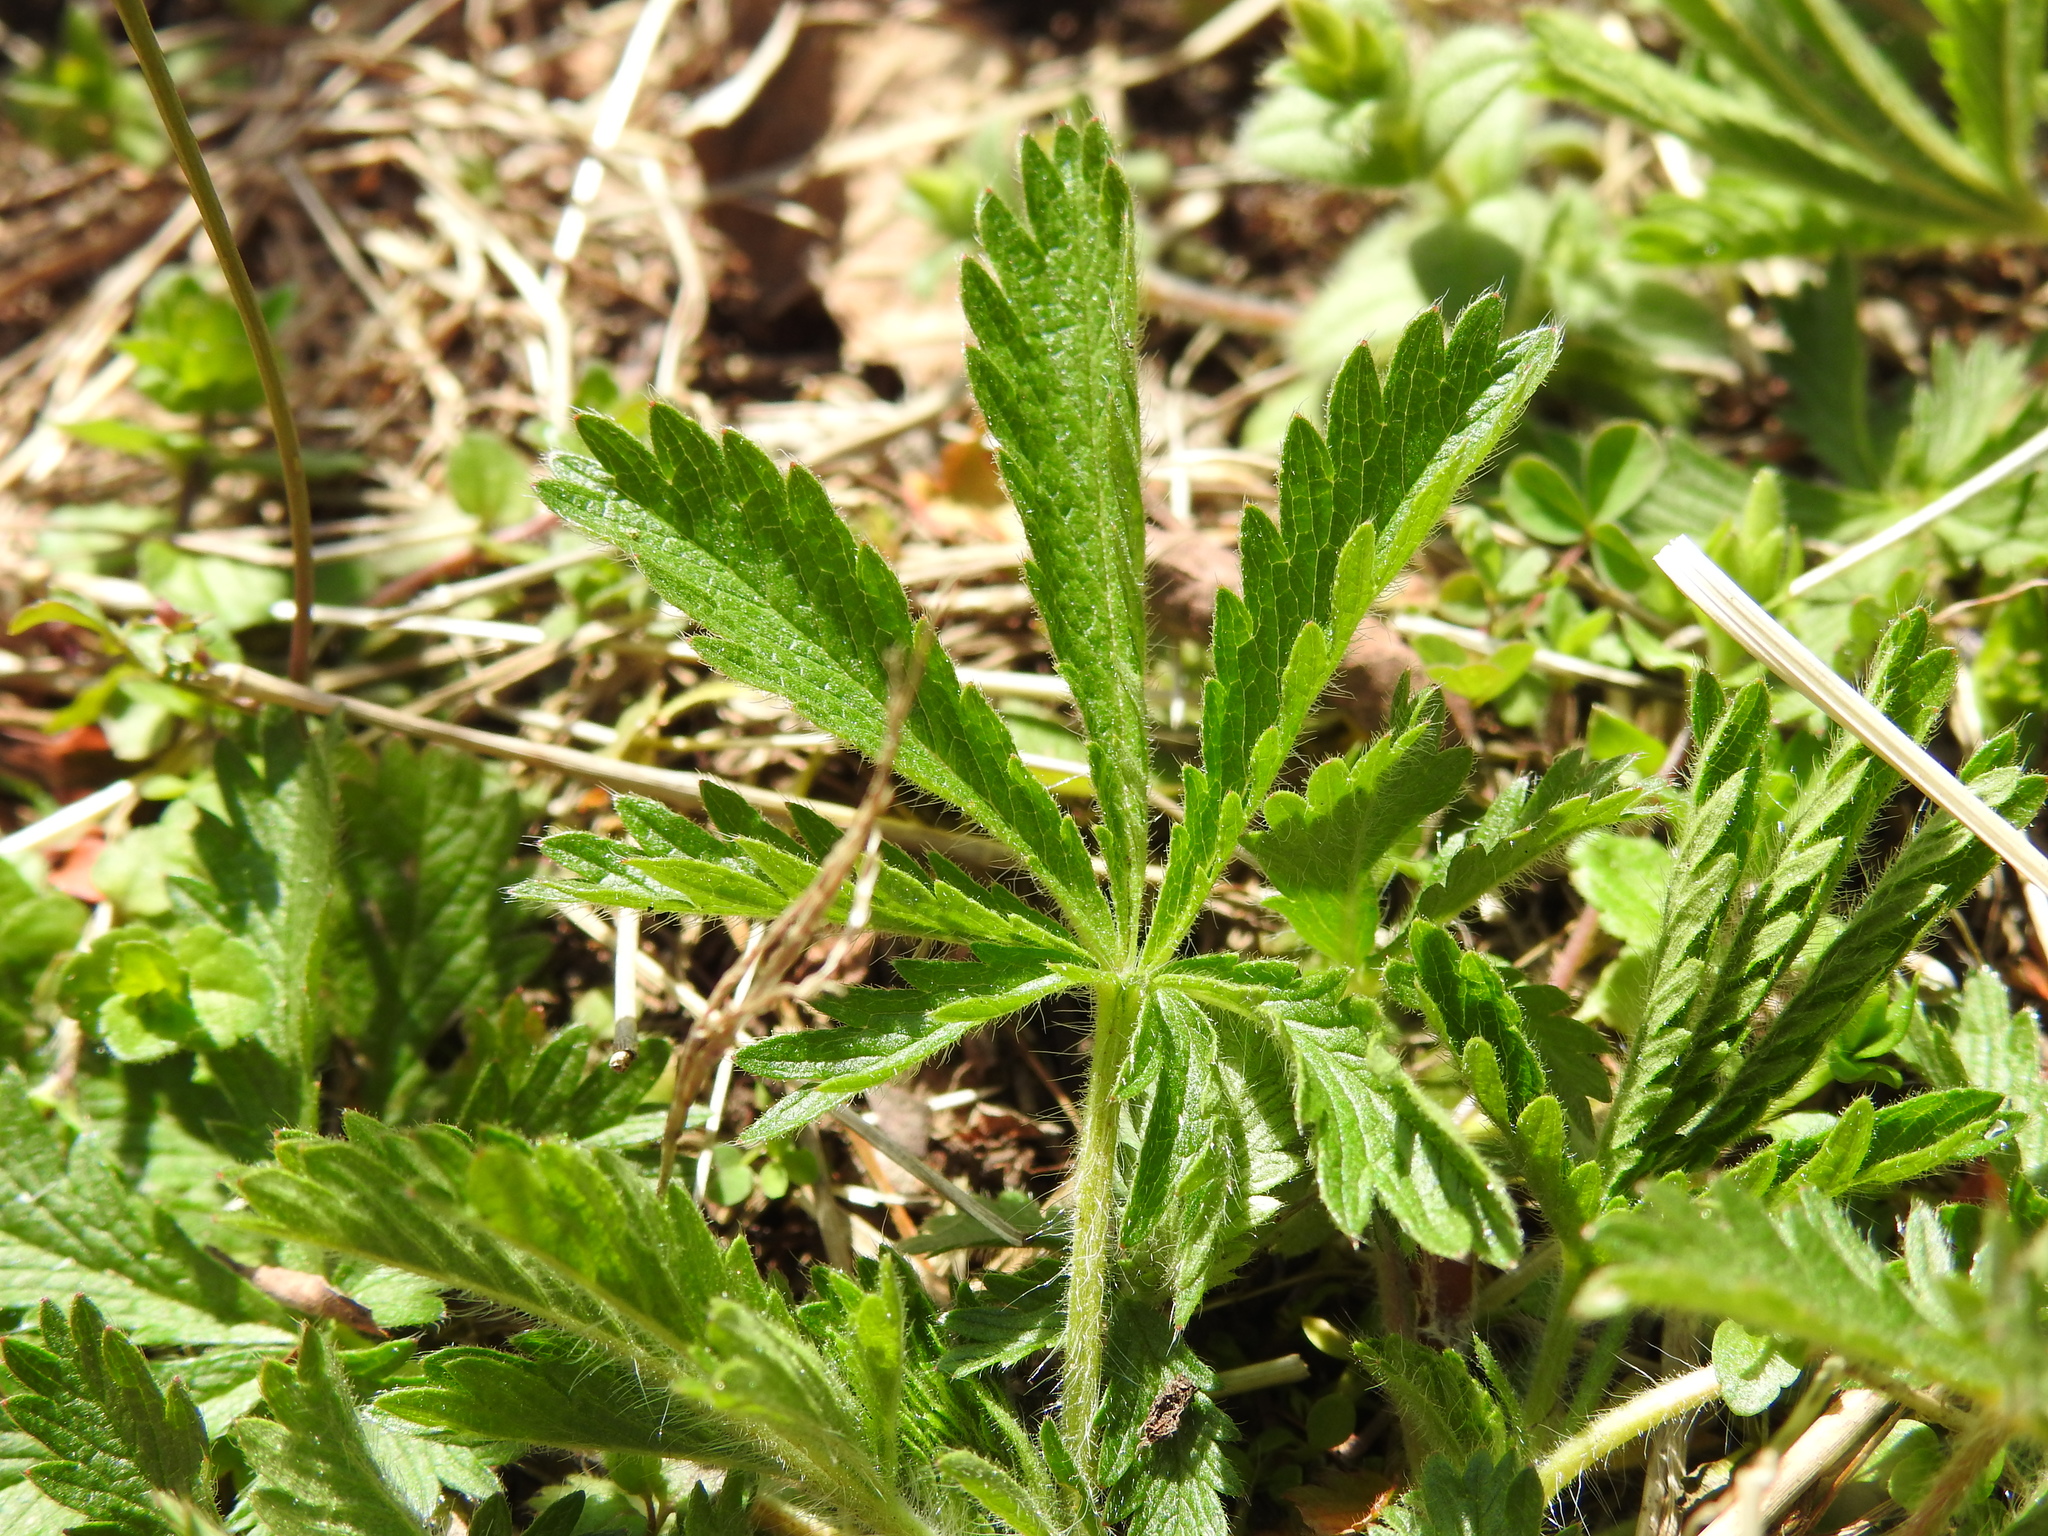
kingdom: Plantae
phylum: Tracheophyta
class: Magnoliopsida
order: Rosales
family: Rosaceae
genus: Potentilla
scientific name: Potentilla recta
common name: Sulphur cinquefoil
